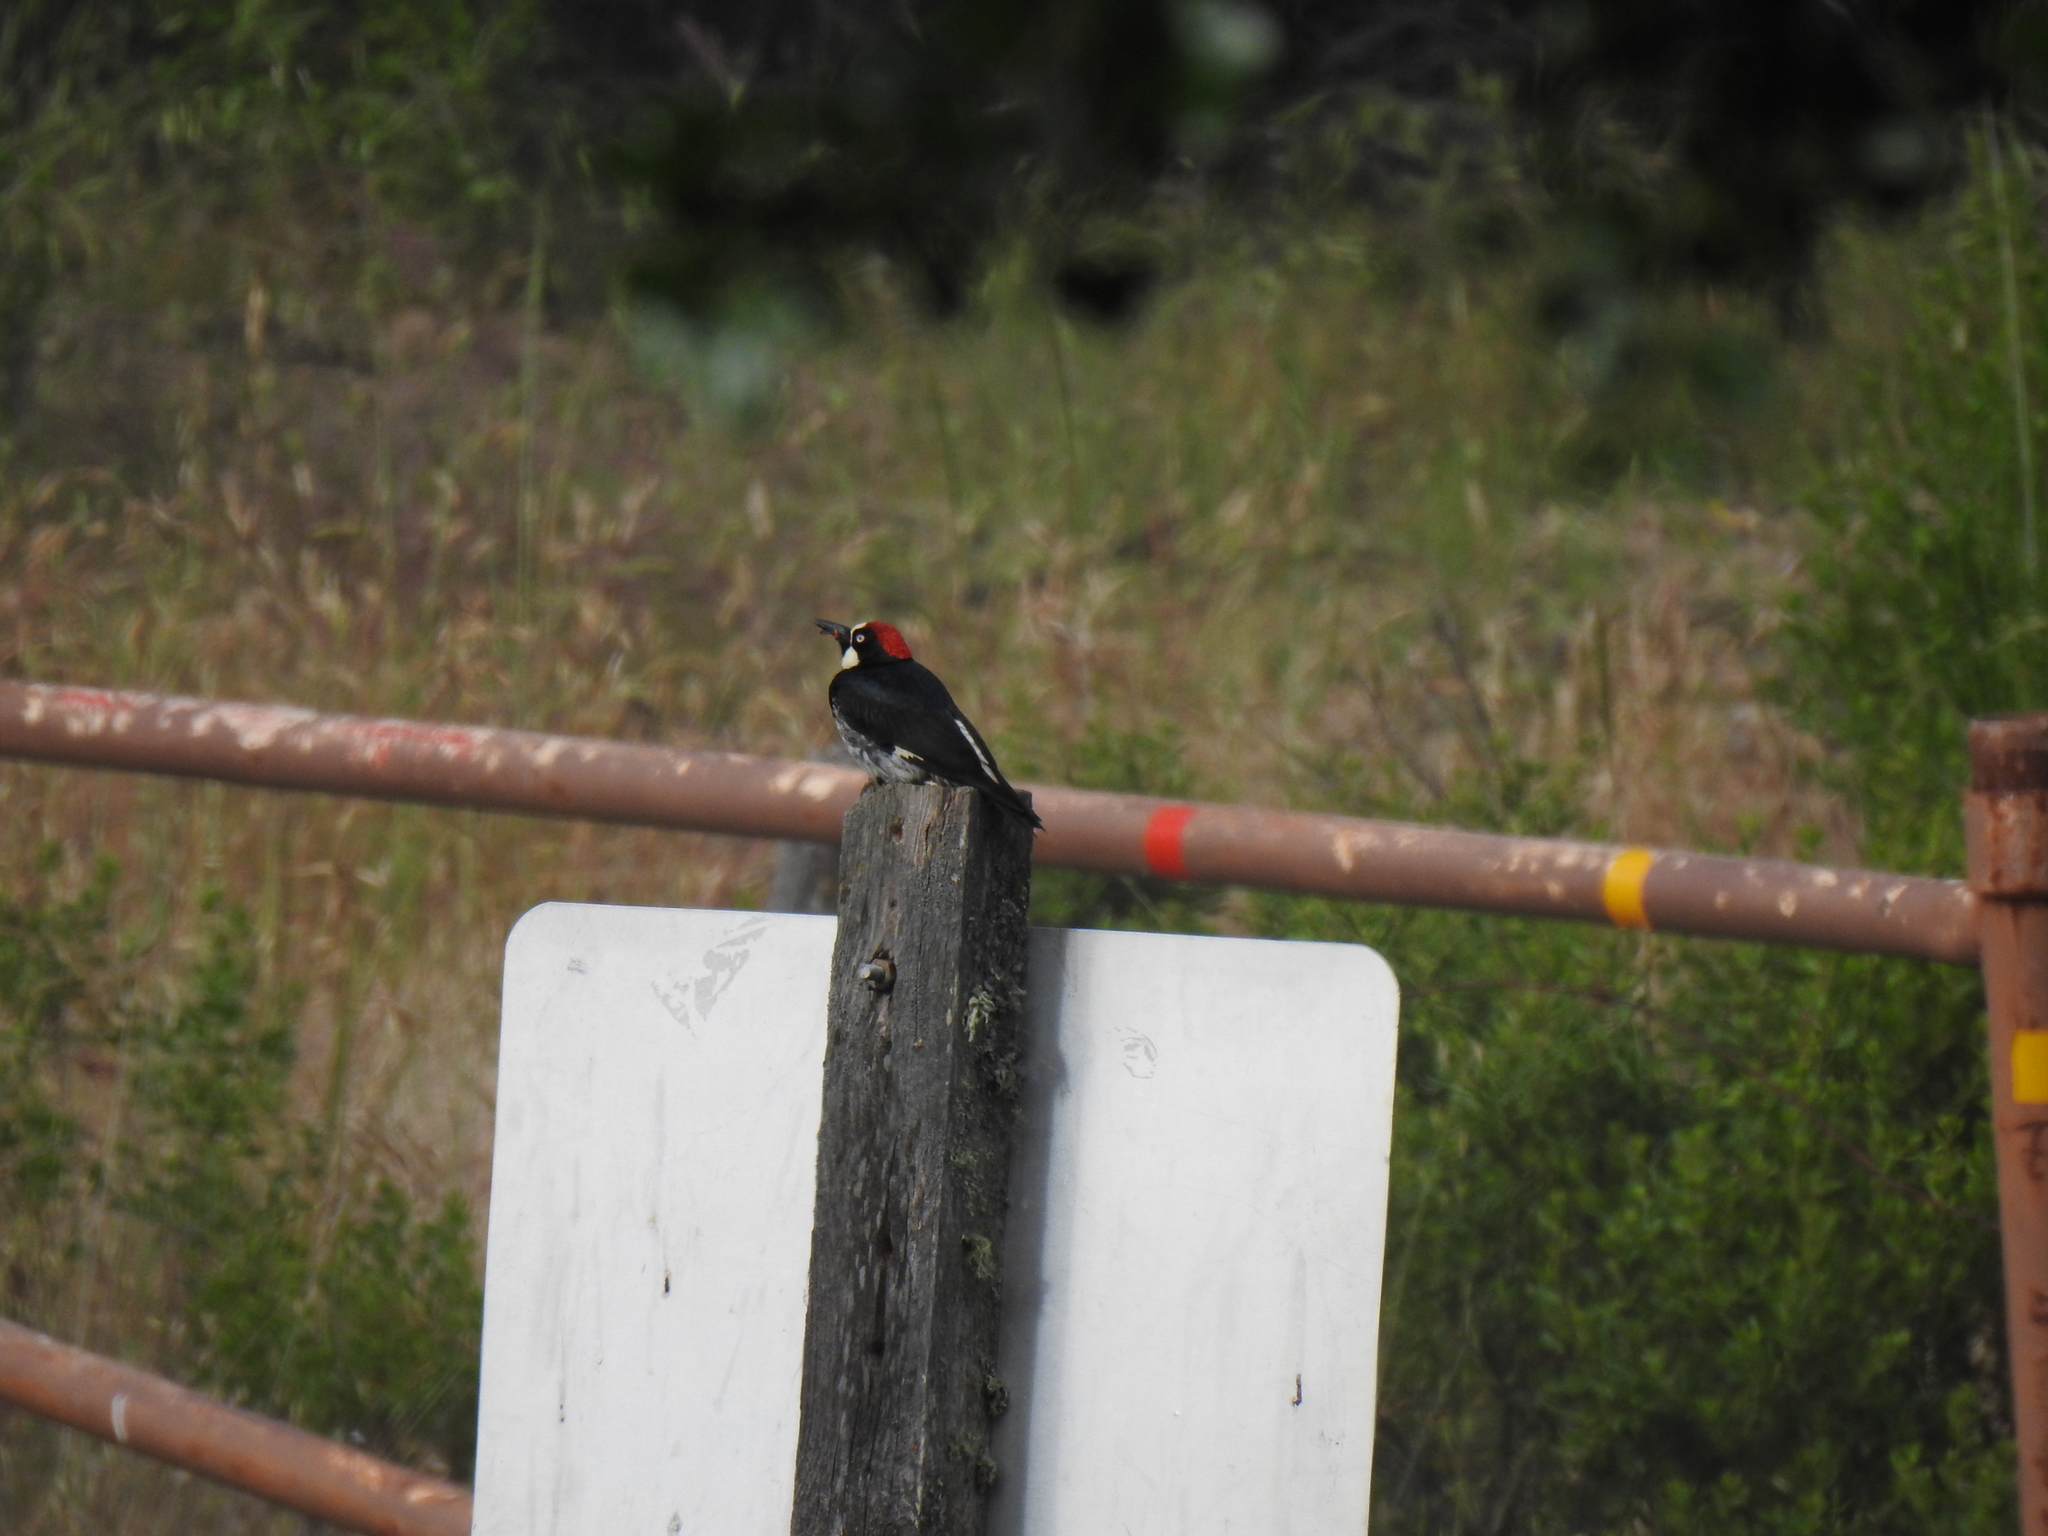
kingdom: Animalia
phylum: Chordata
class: Aves
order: Piciformes
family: Picidae
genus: Melanerpes
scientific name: Melanerpes formicivorus
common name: Acorn woodpecker
